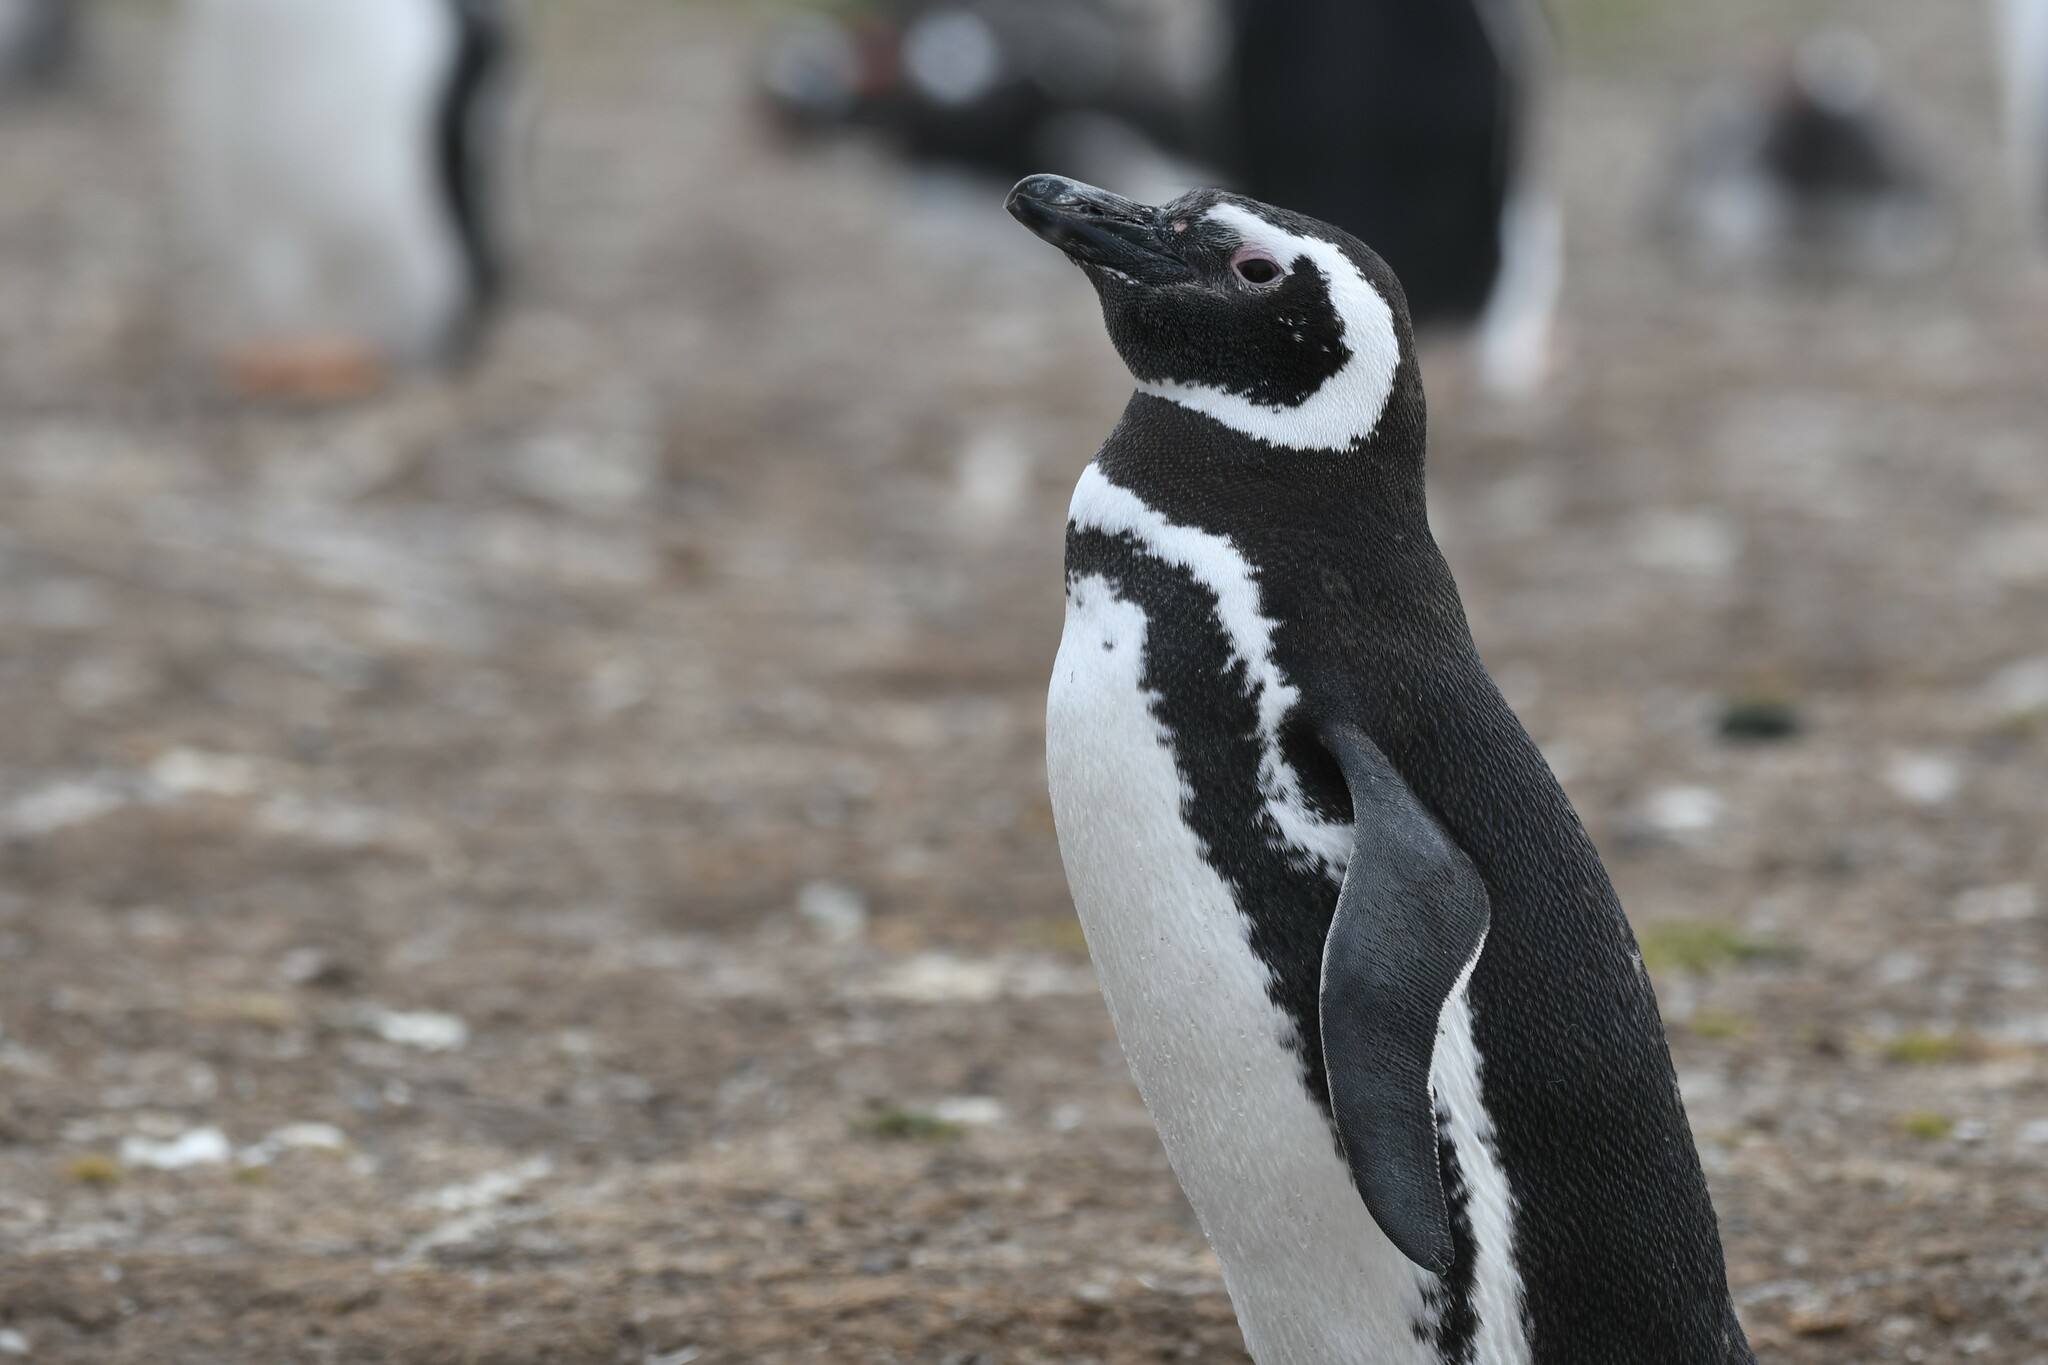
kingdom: Animalia
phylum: Chordata
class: Aves
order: Sphenisciformes
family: Spheniscidae
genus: Spheniscus
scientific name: Spheniscus magellanicus
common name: Magellanic penguin
